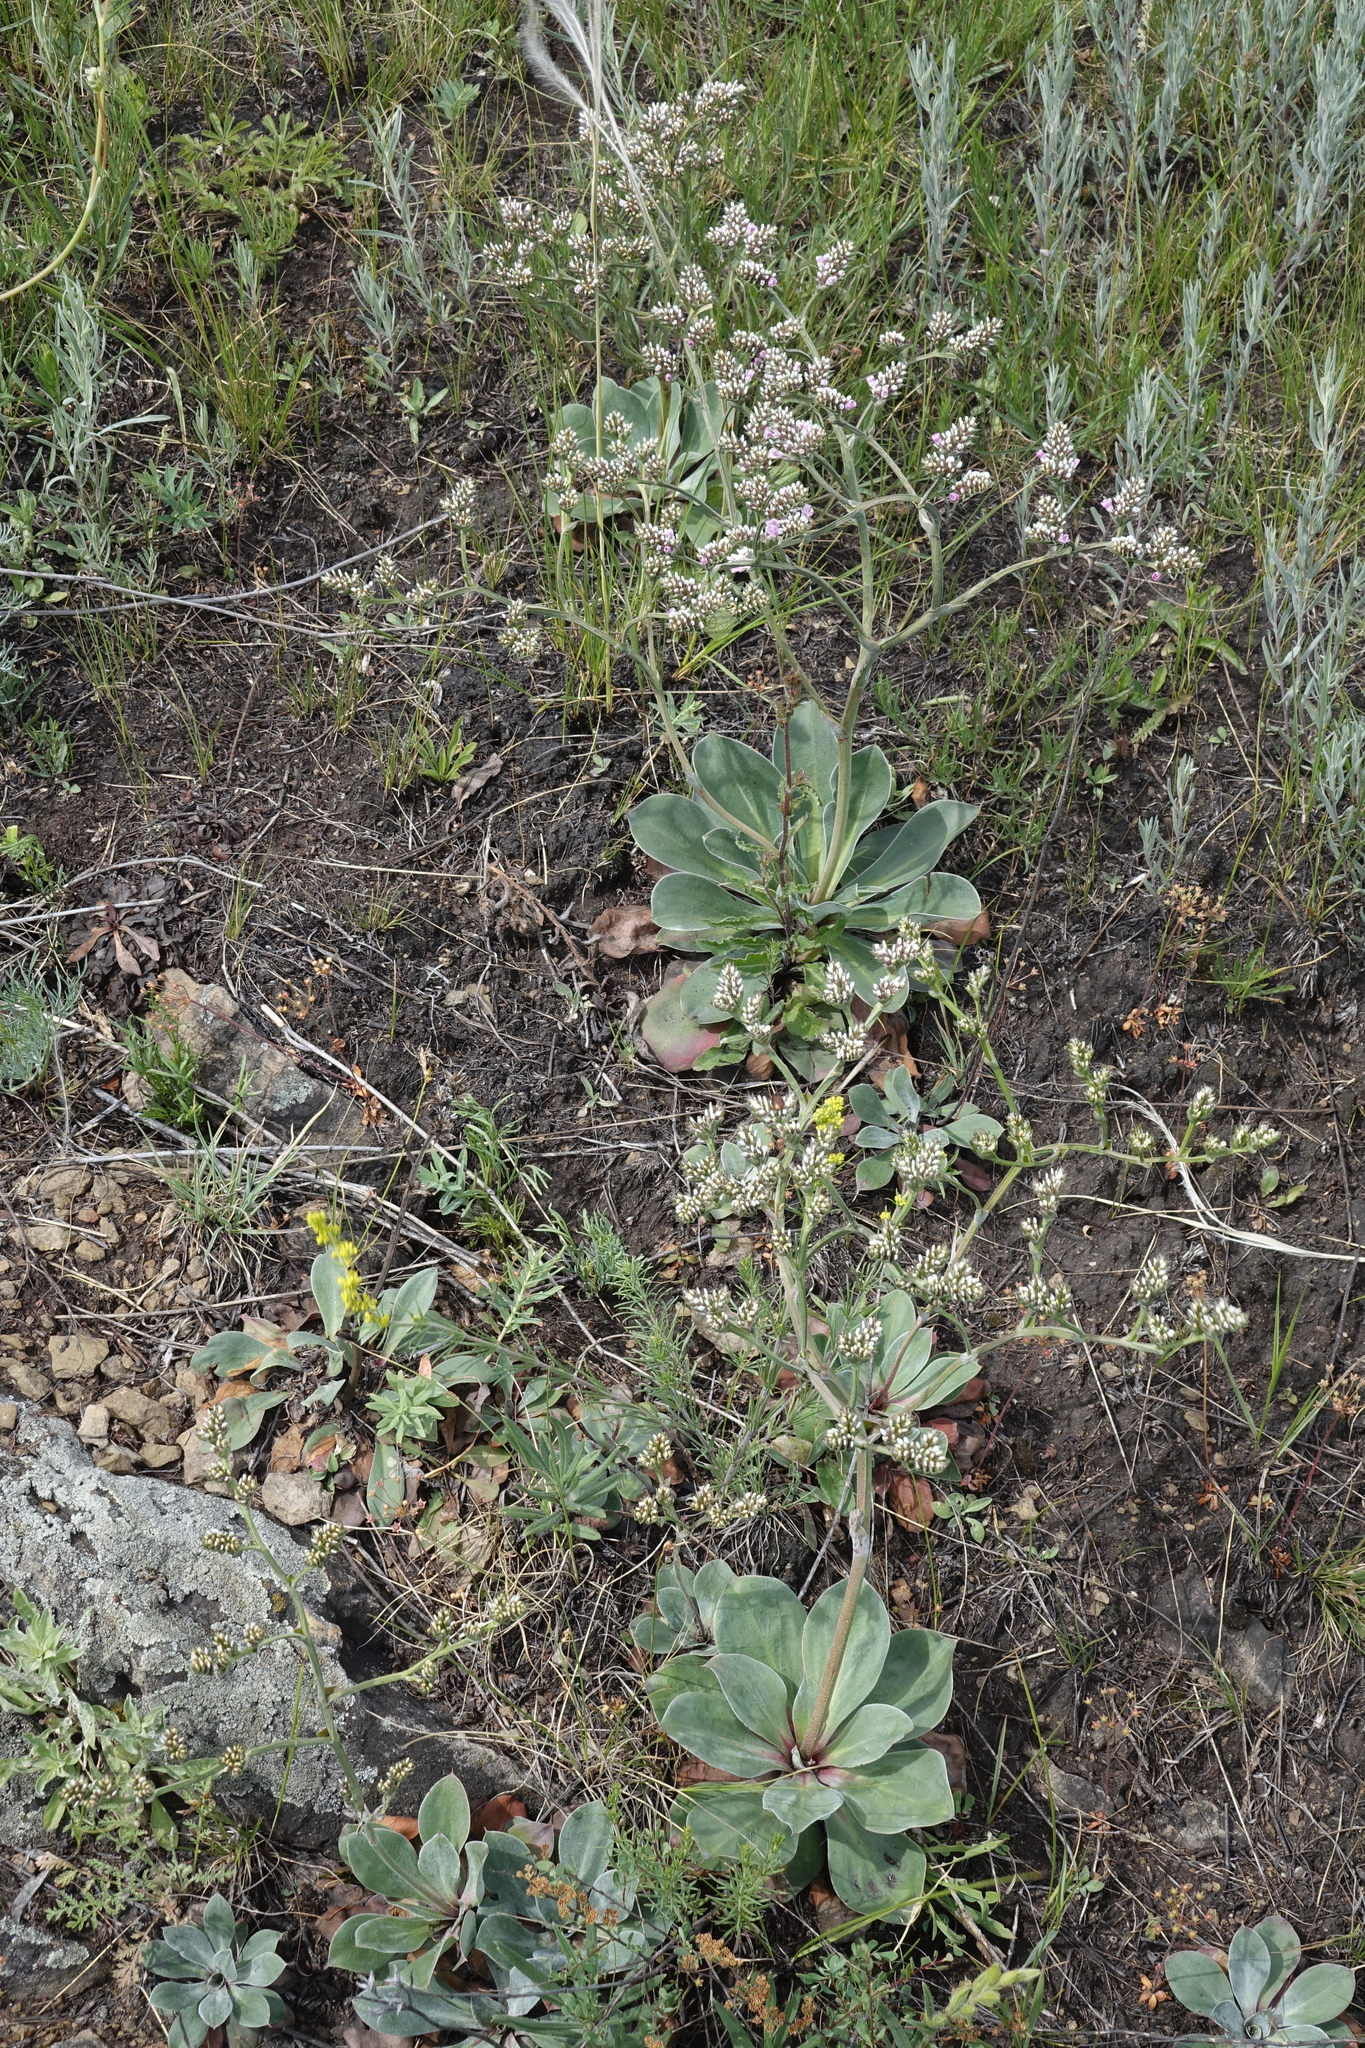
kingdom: Plantae
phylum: Tracheophyta
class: Magnoliopsida
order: Caryophyllales
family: Plumbaginaceae
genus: Goniolimon
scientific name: Goniolimon speciosum
